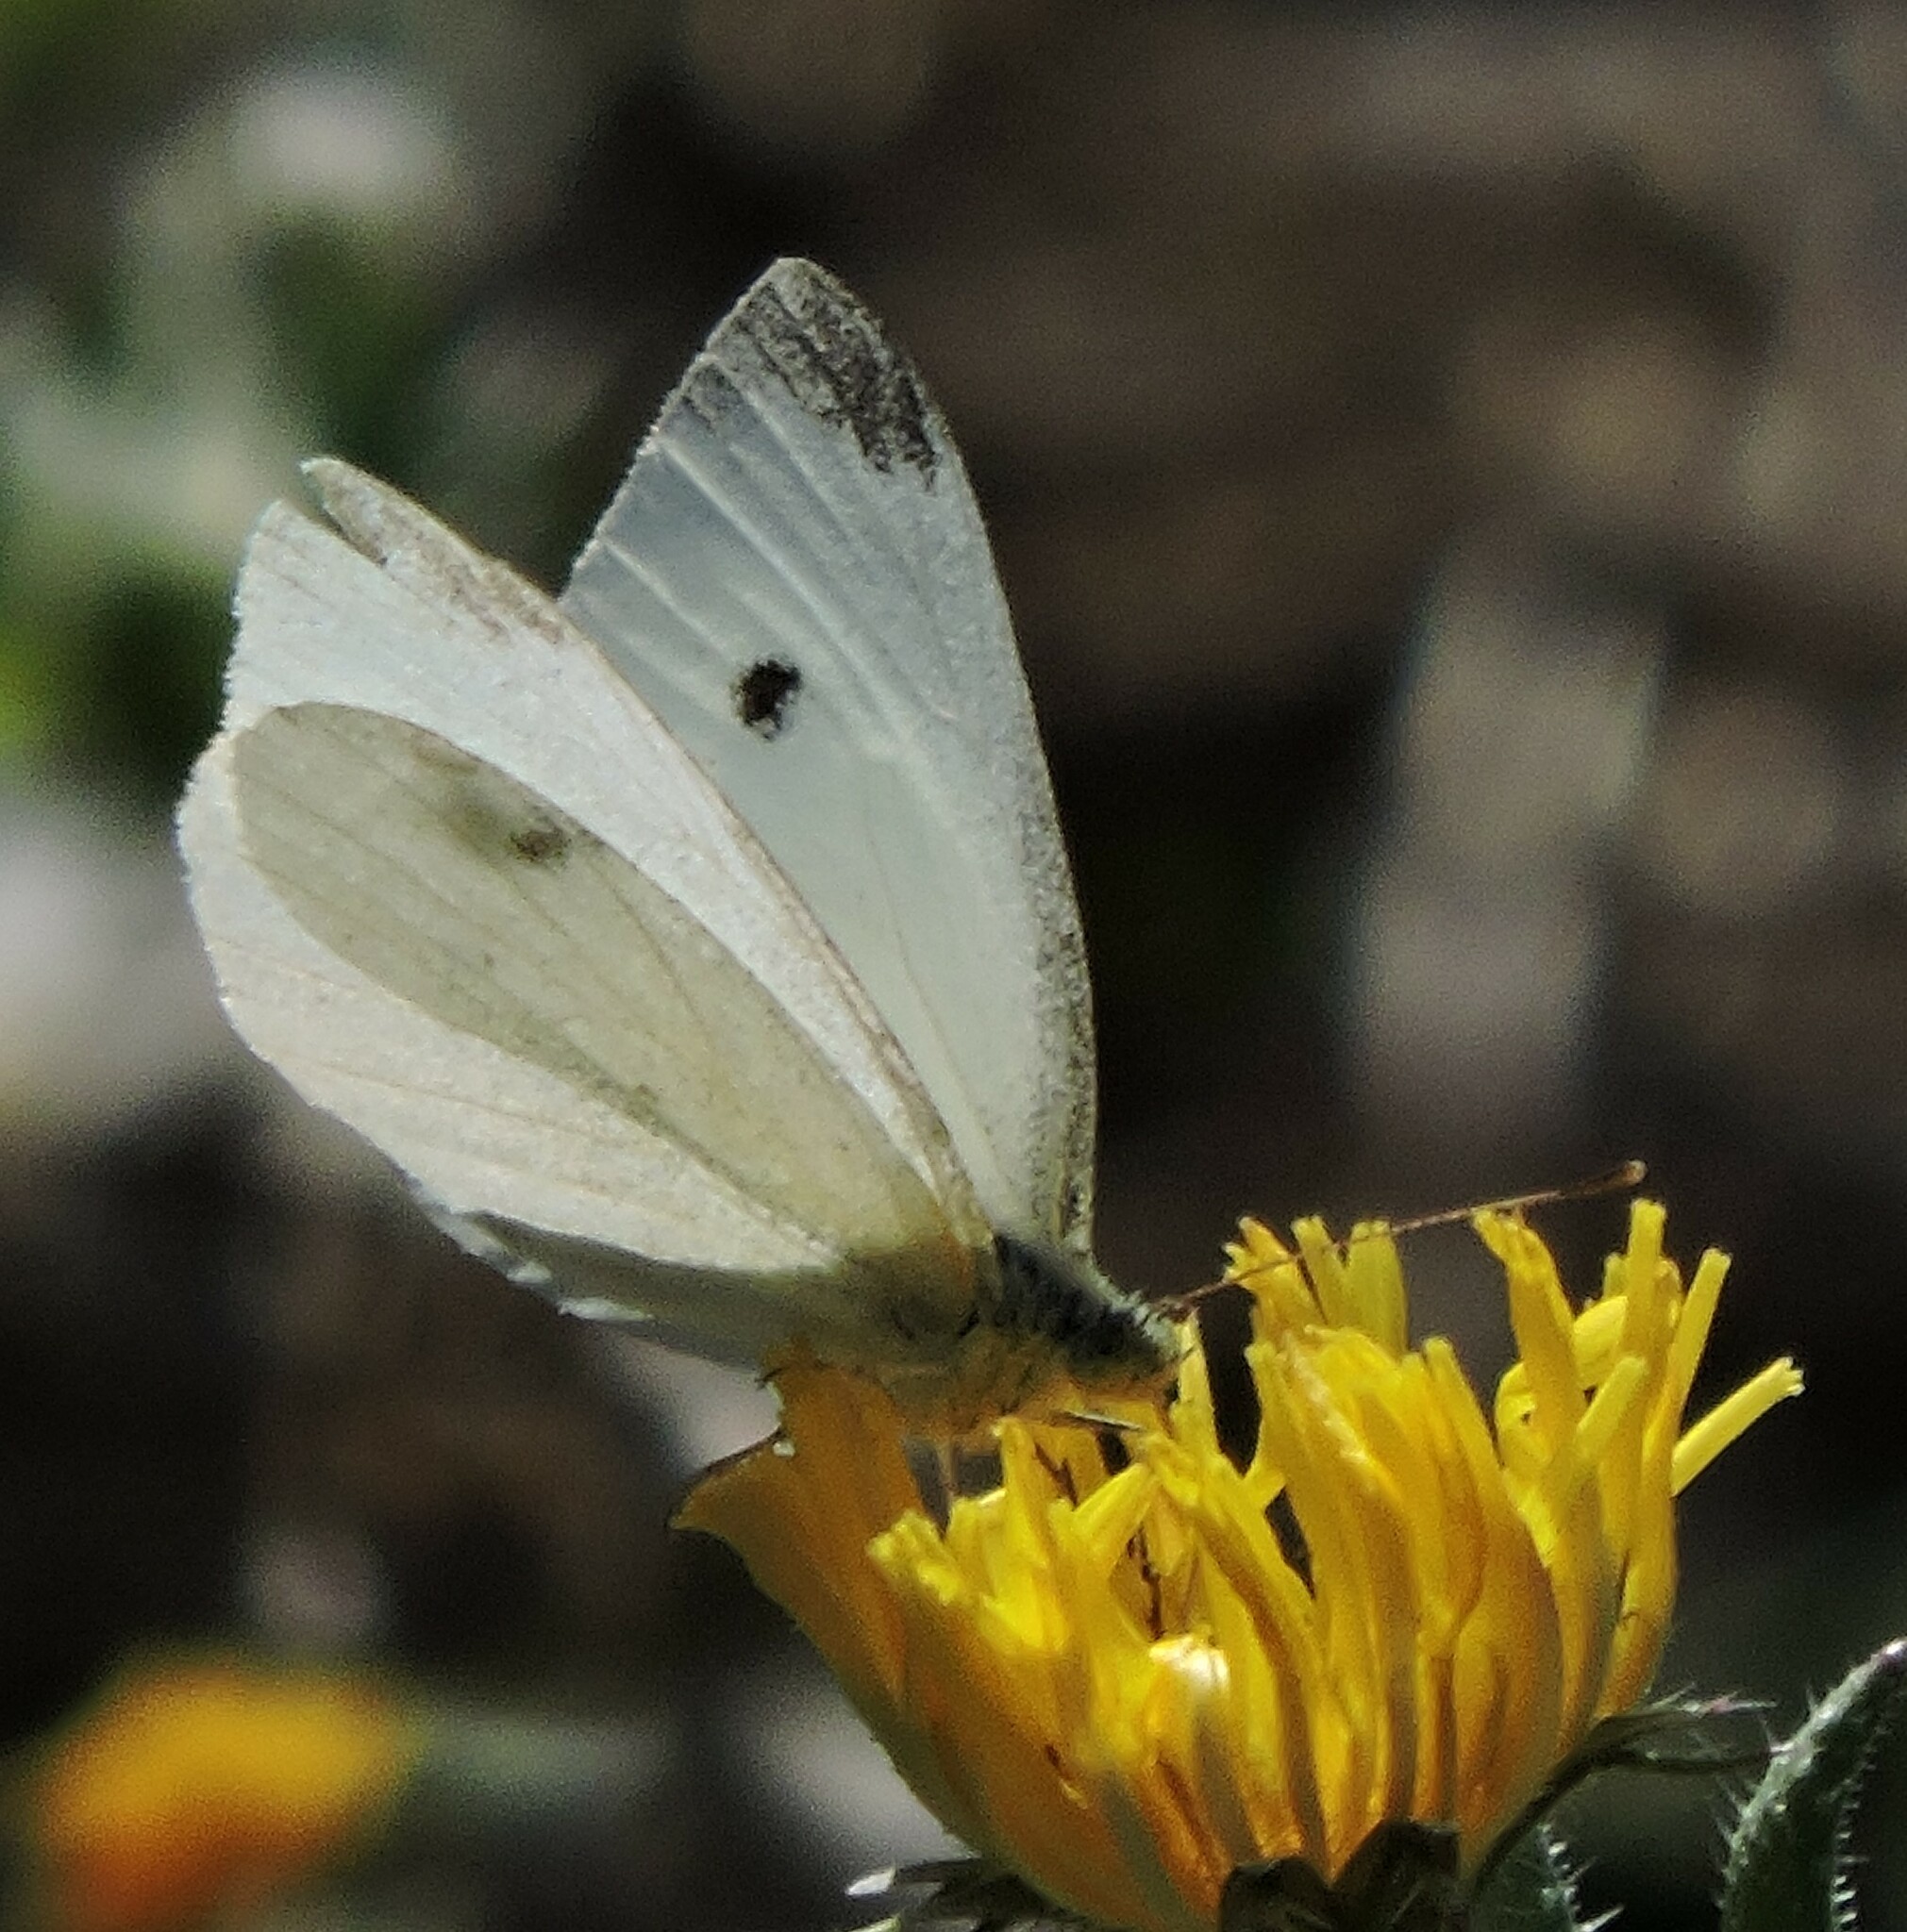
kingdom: Animalia
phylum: Arthropoda
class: Insecta
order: Lepidoptera
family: Pieridae
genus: Pieris
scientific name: Pieris rapae
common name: Small white
